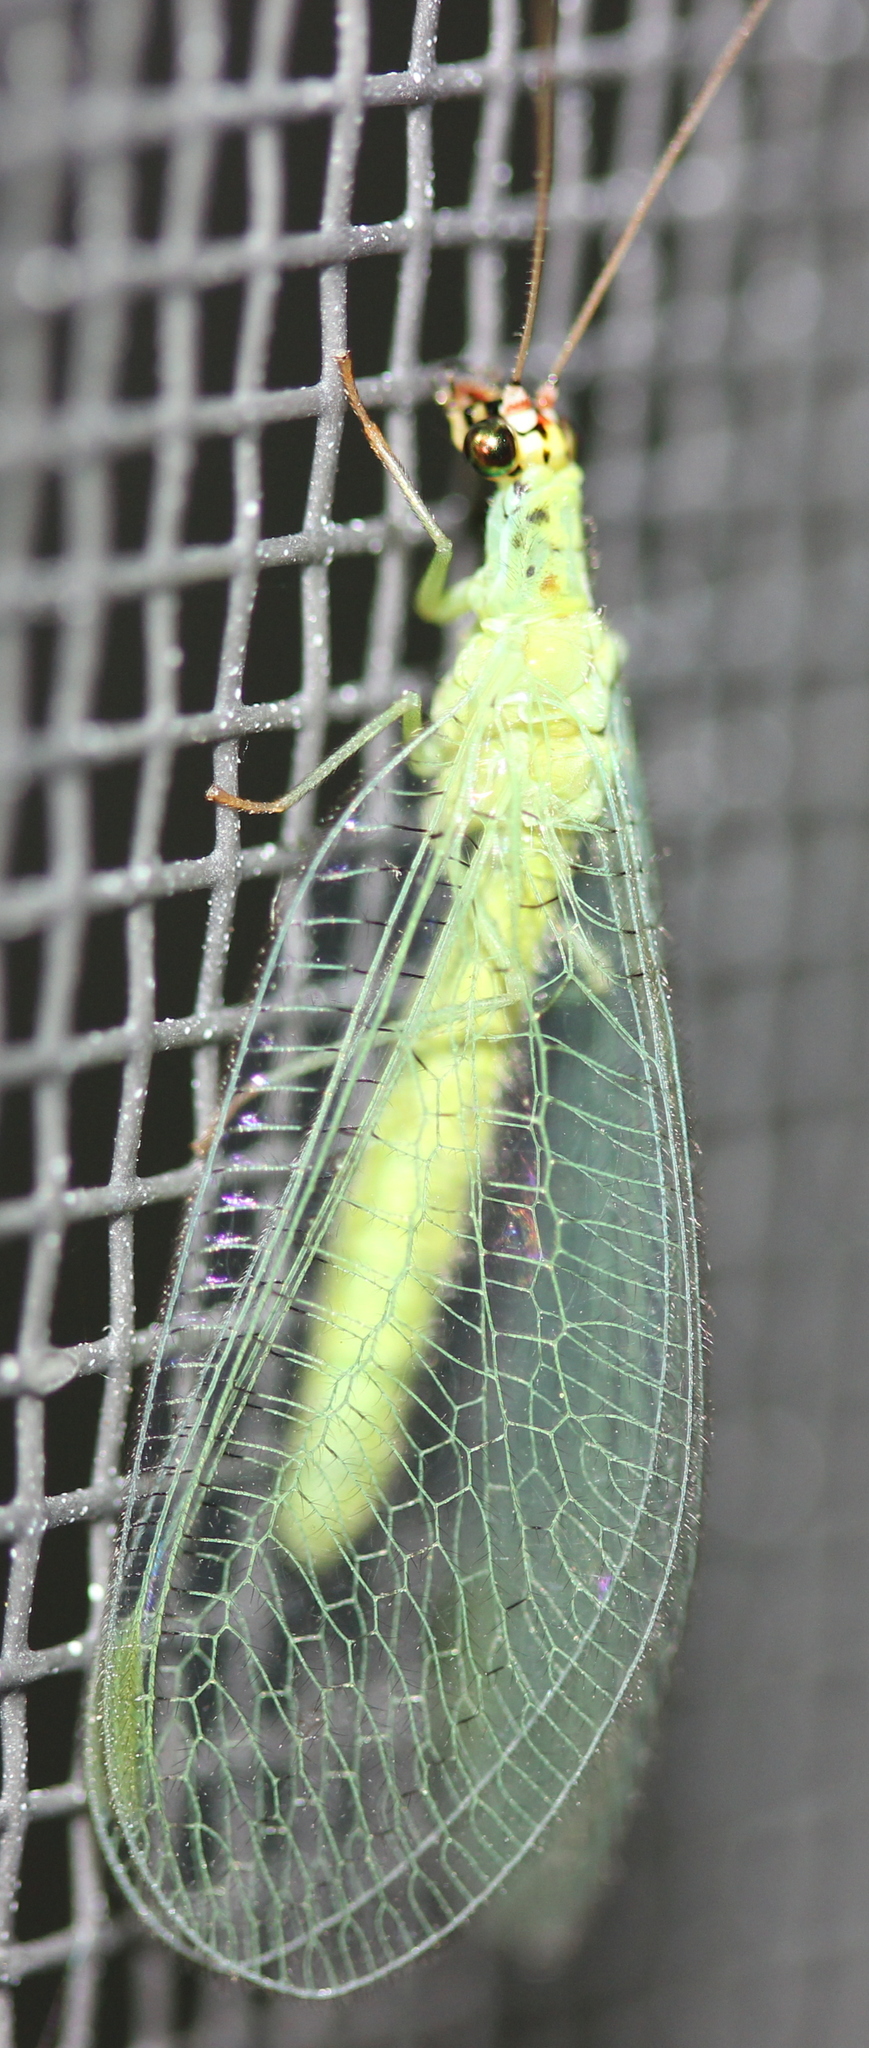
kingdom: Animalia
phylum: Arthropoda
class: Insecta
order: Neuroptera
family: Chrysopidae
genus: Chrysopa
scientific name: Chrysopa oculata
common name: Golden-eyed lacewing
